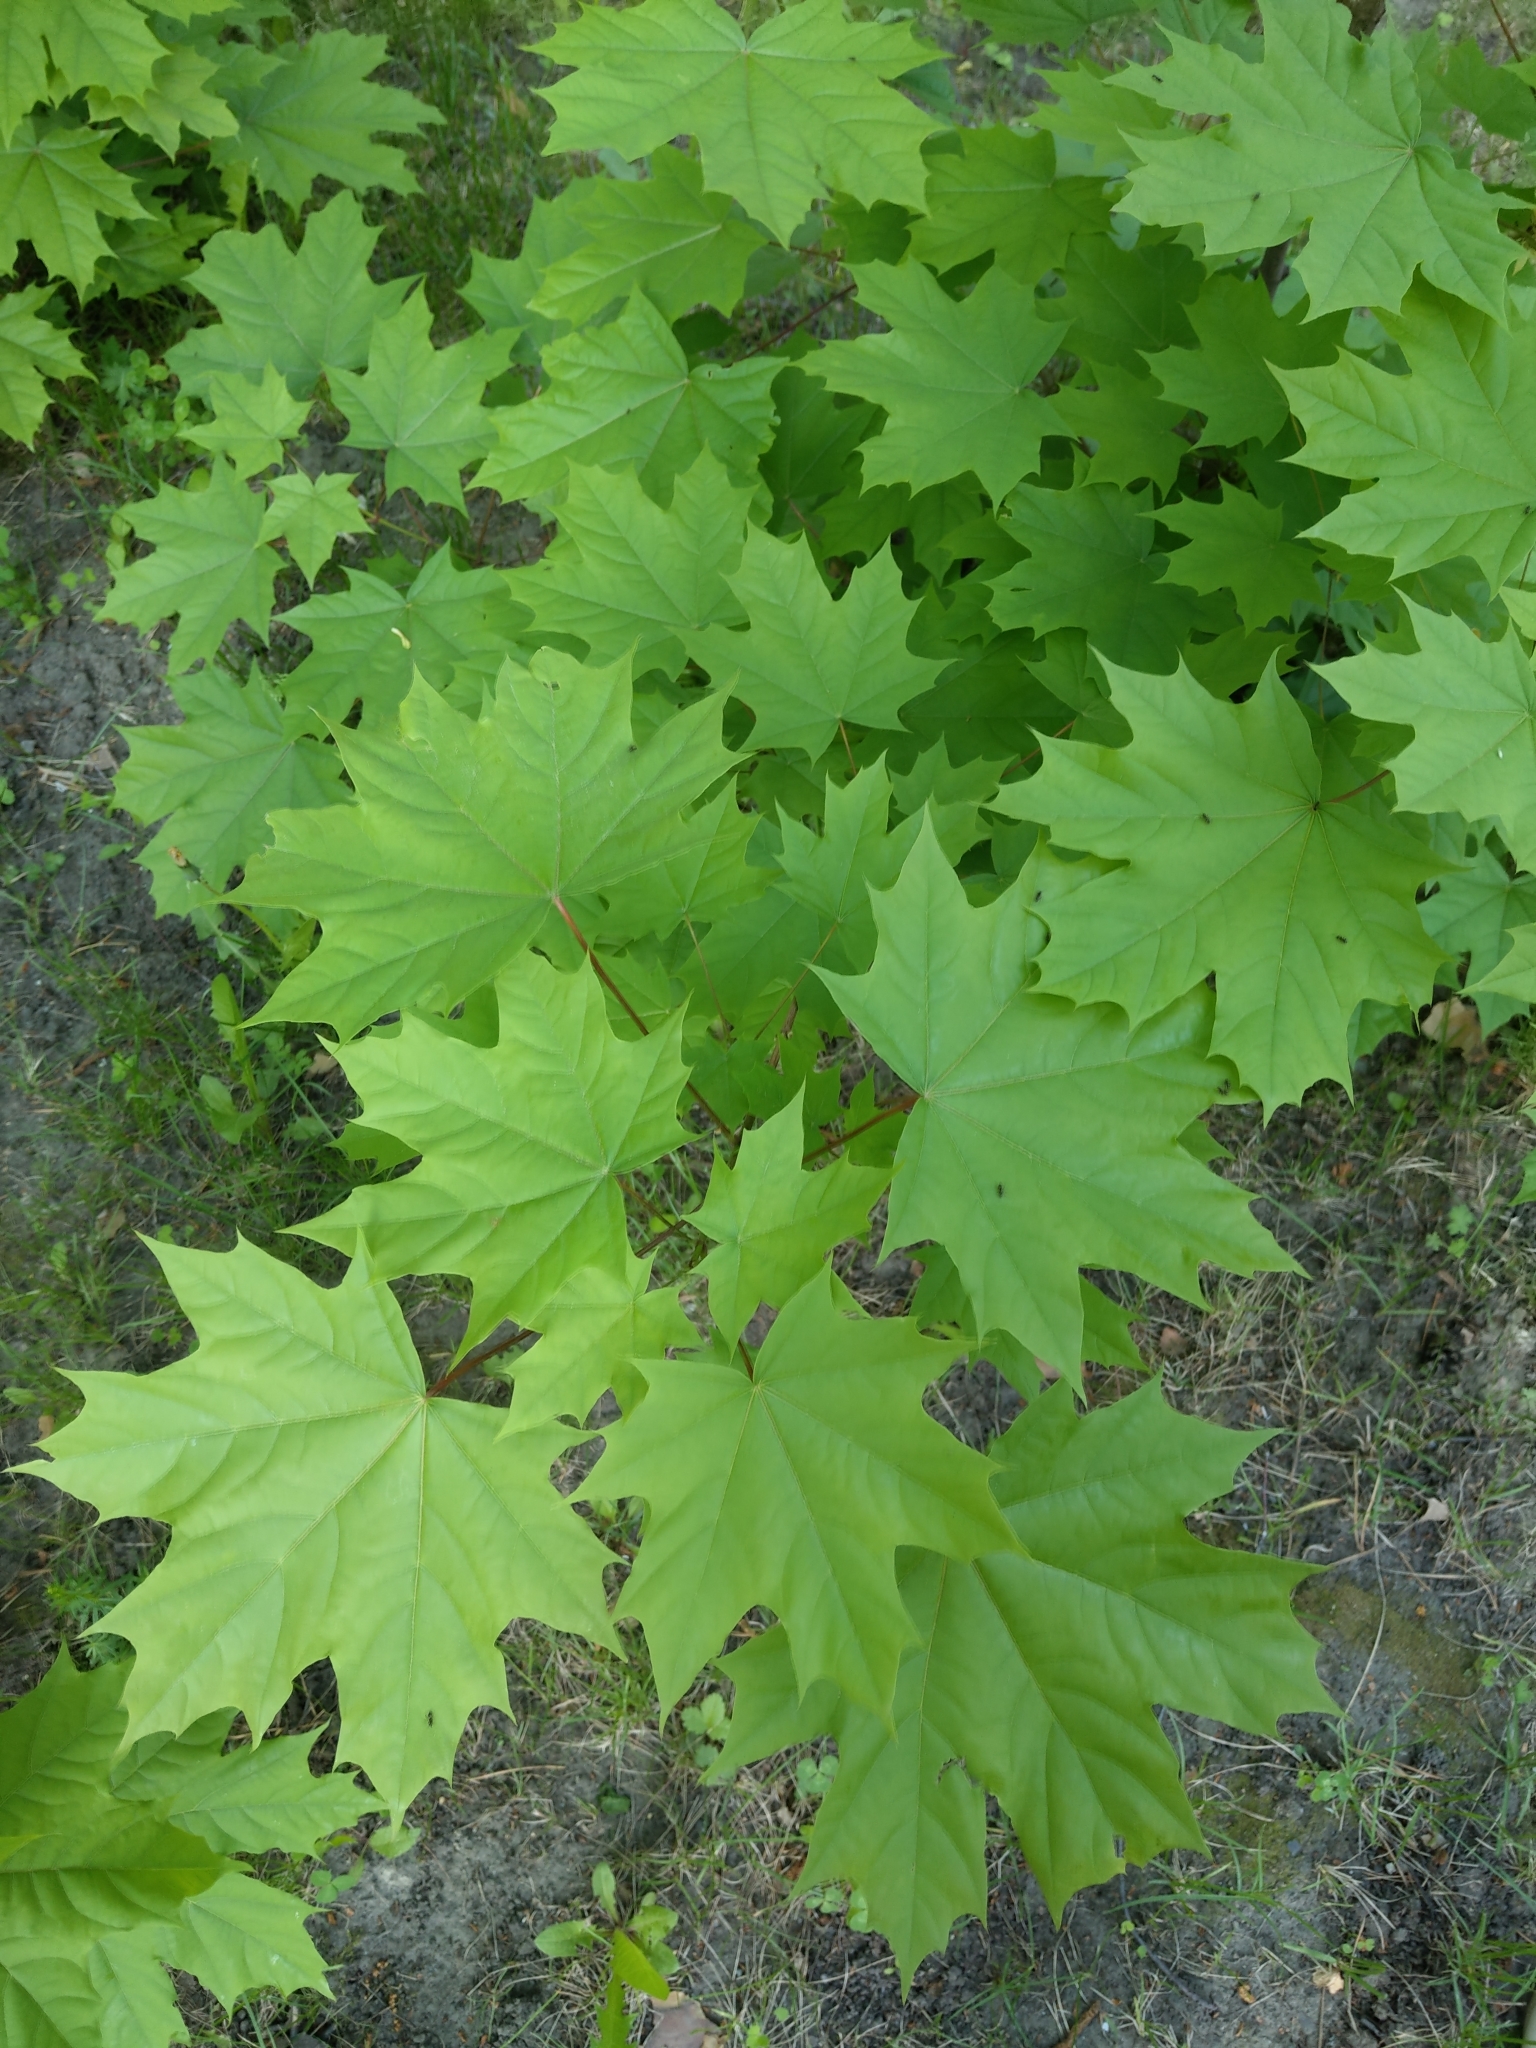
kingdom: Plantae
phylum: Tracheophyta
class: Magnoliopsida
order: Sapindales
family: Sapindaceae
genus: Acer
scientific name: Acer platanoides
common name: Norway maple
